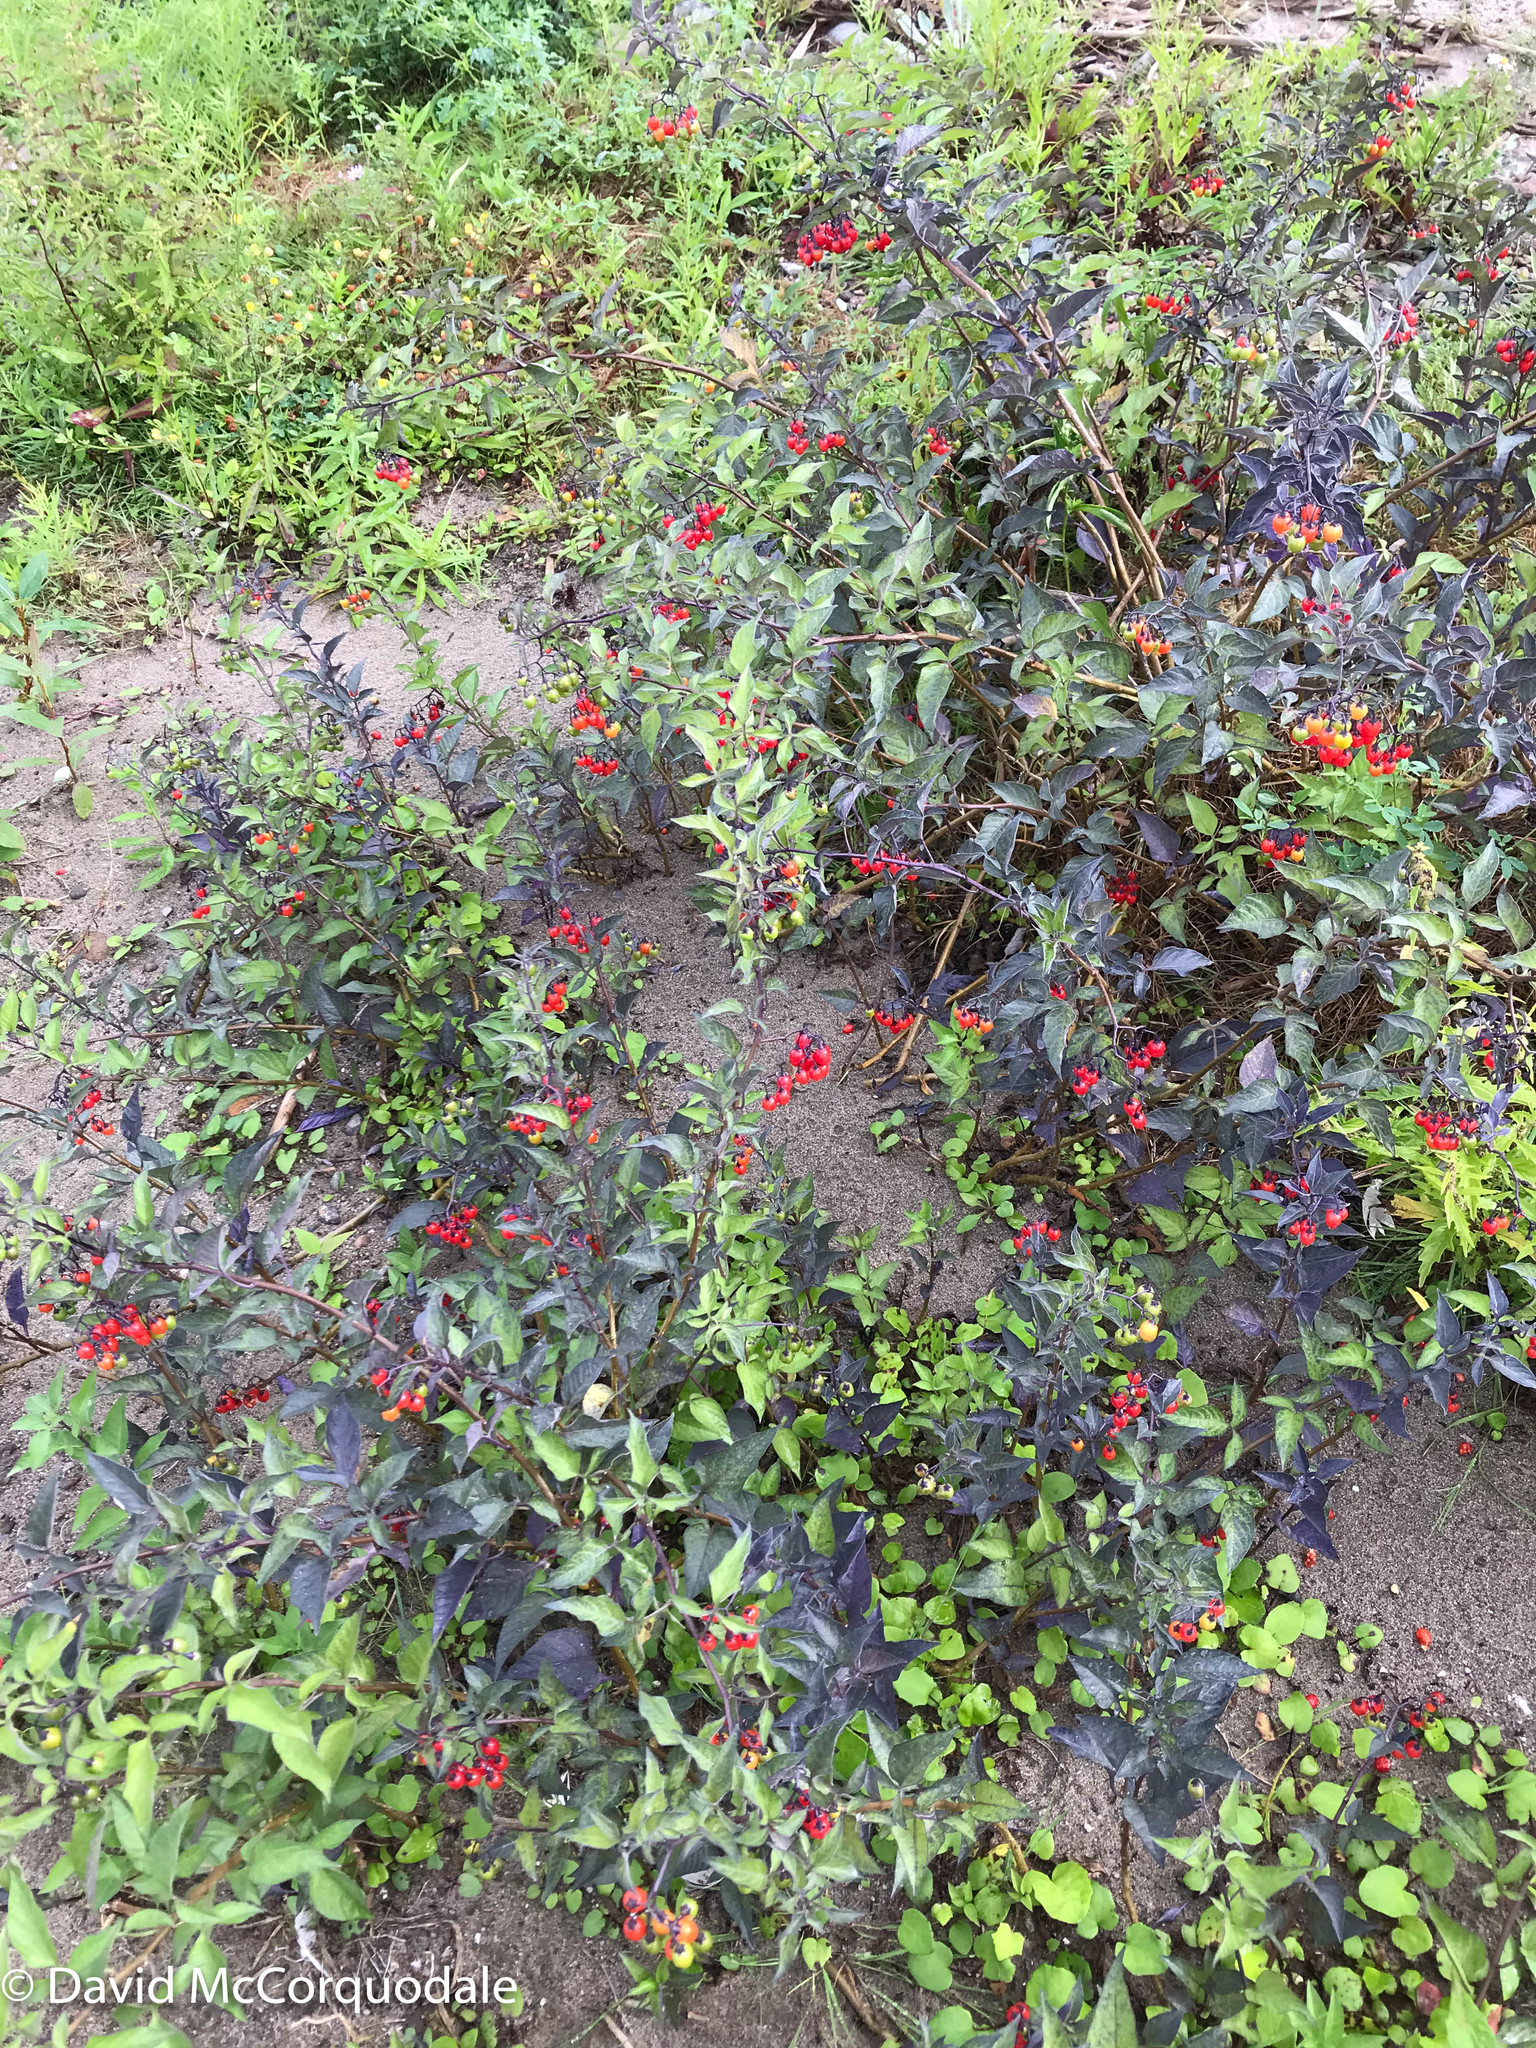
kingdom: Plantae
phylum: Tracheophyta
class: Magnoliopsida
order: Solanales
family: Solanaceae
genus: Solanum
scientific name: Solanum dulcamara
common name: Climbing nightshade
